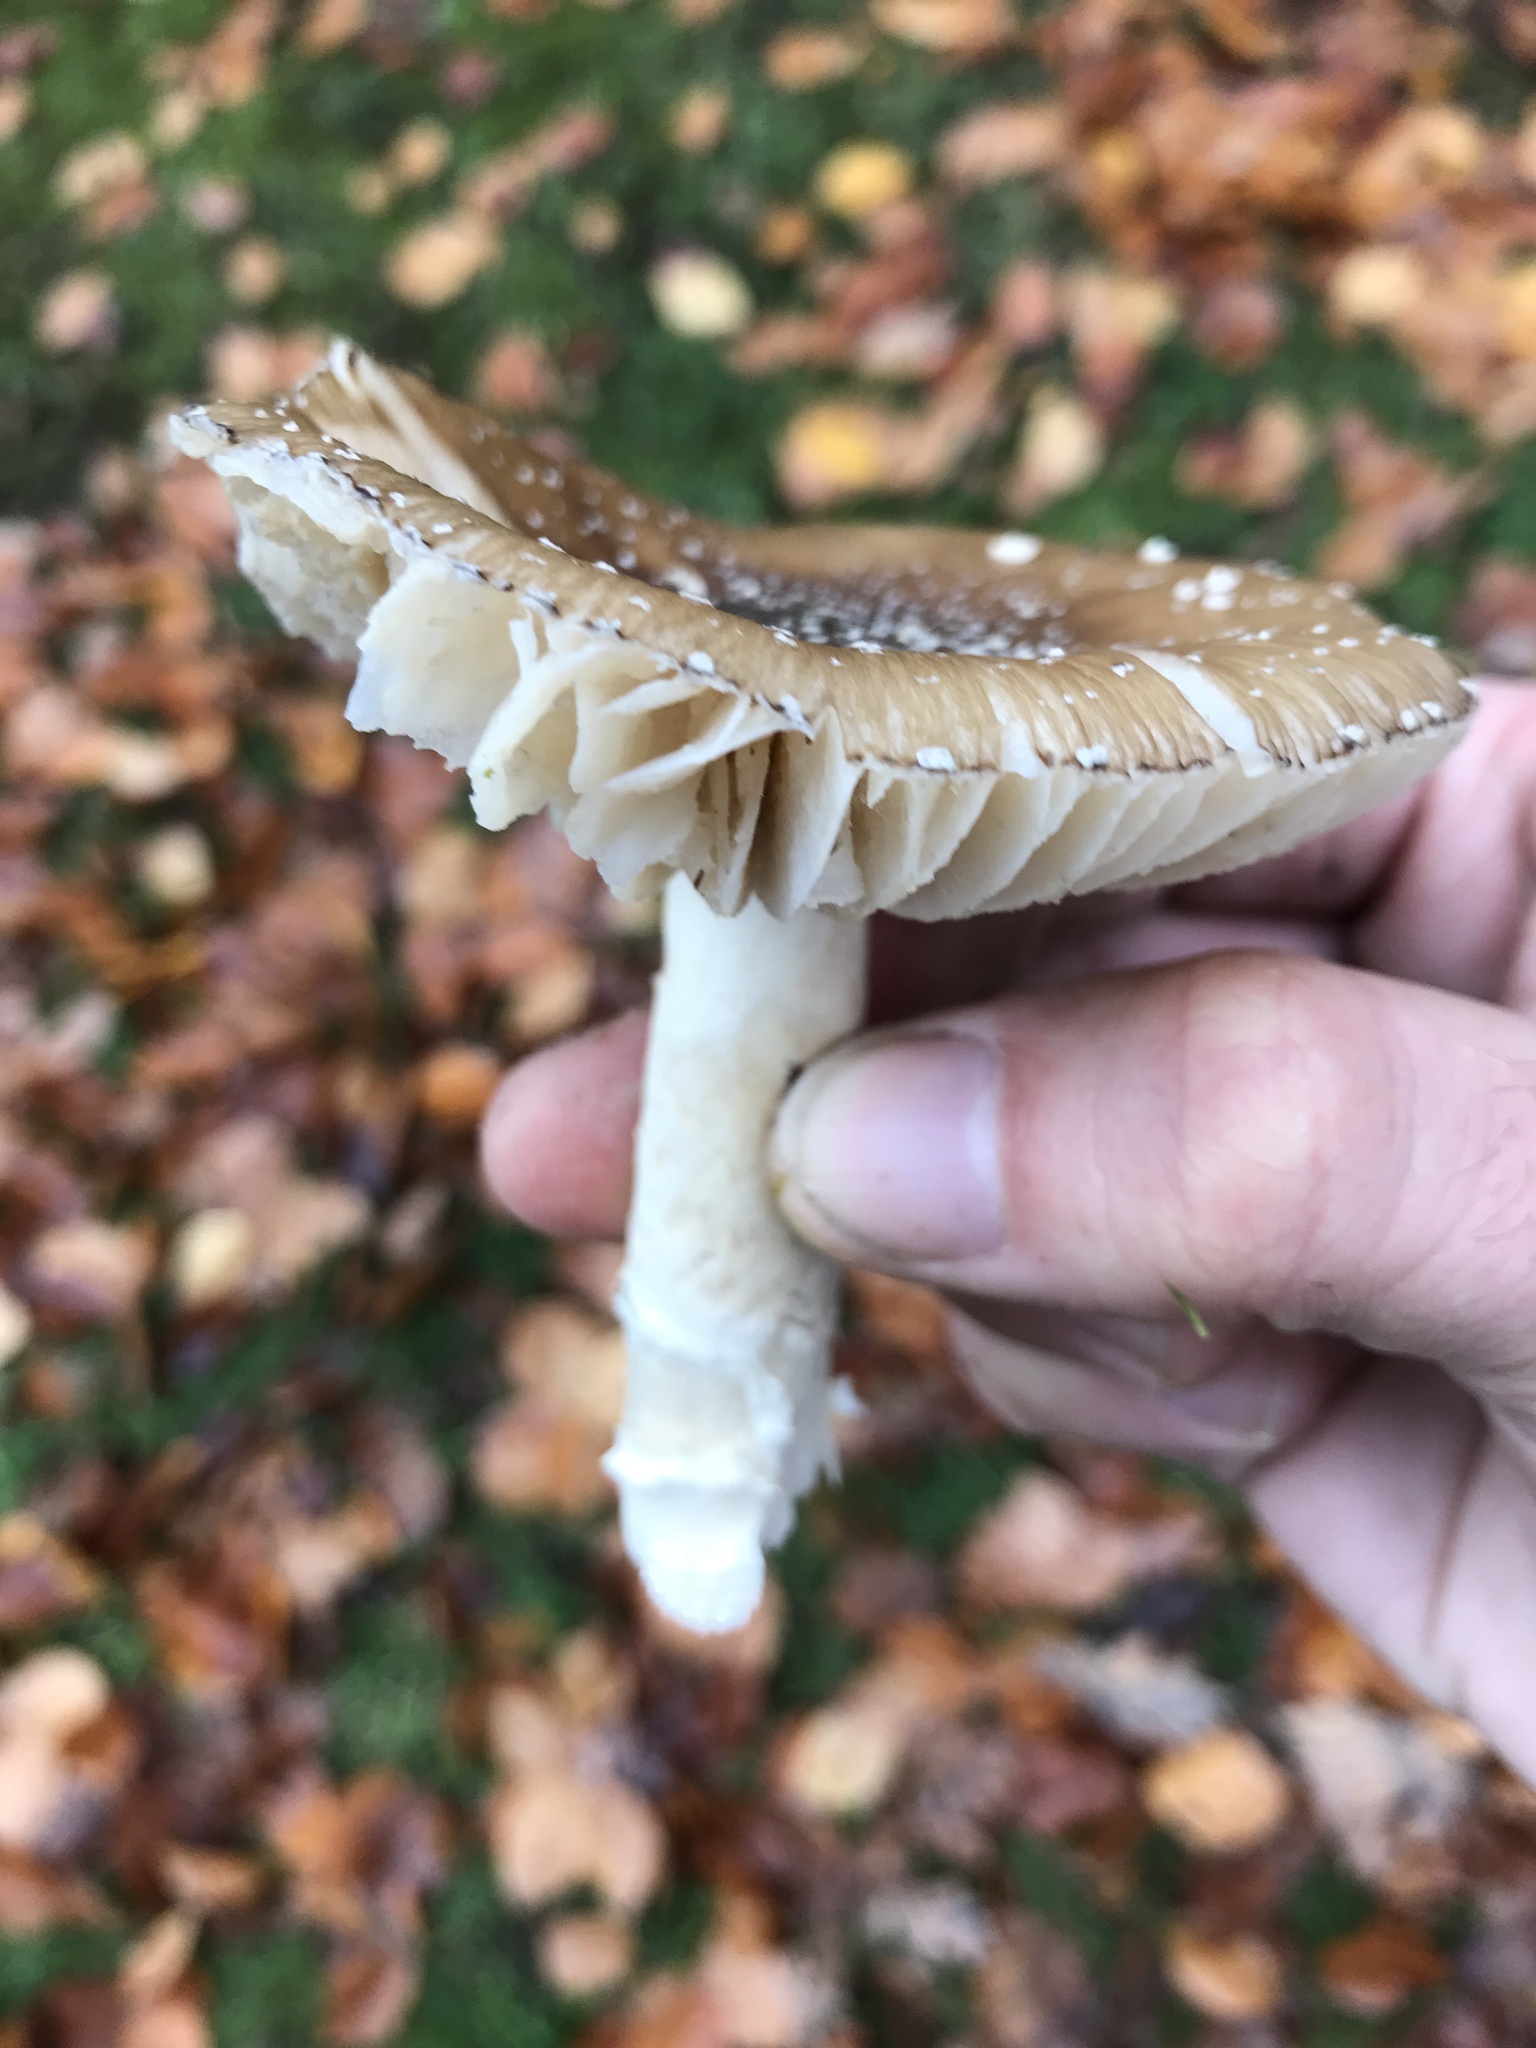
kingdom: Fungi
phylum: Basidiomycota
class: Agaricomycetes
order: Agaricales
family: Amanitaceae
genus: Amanita
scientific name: Amanita pantherina
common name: Panthercap
